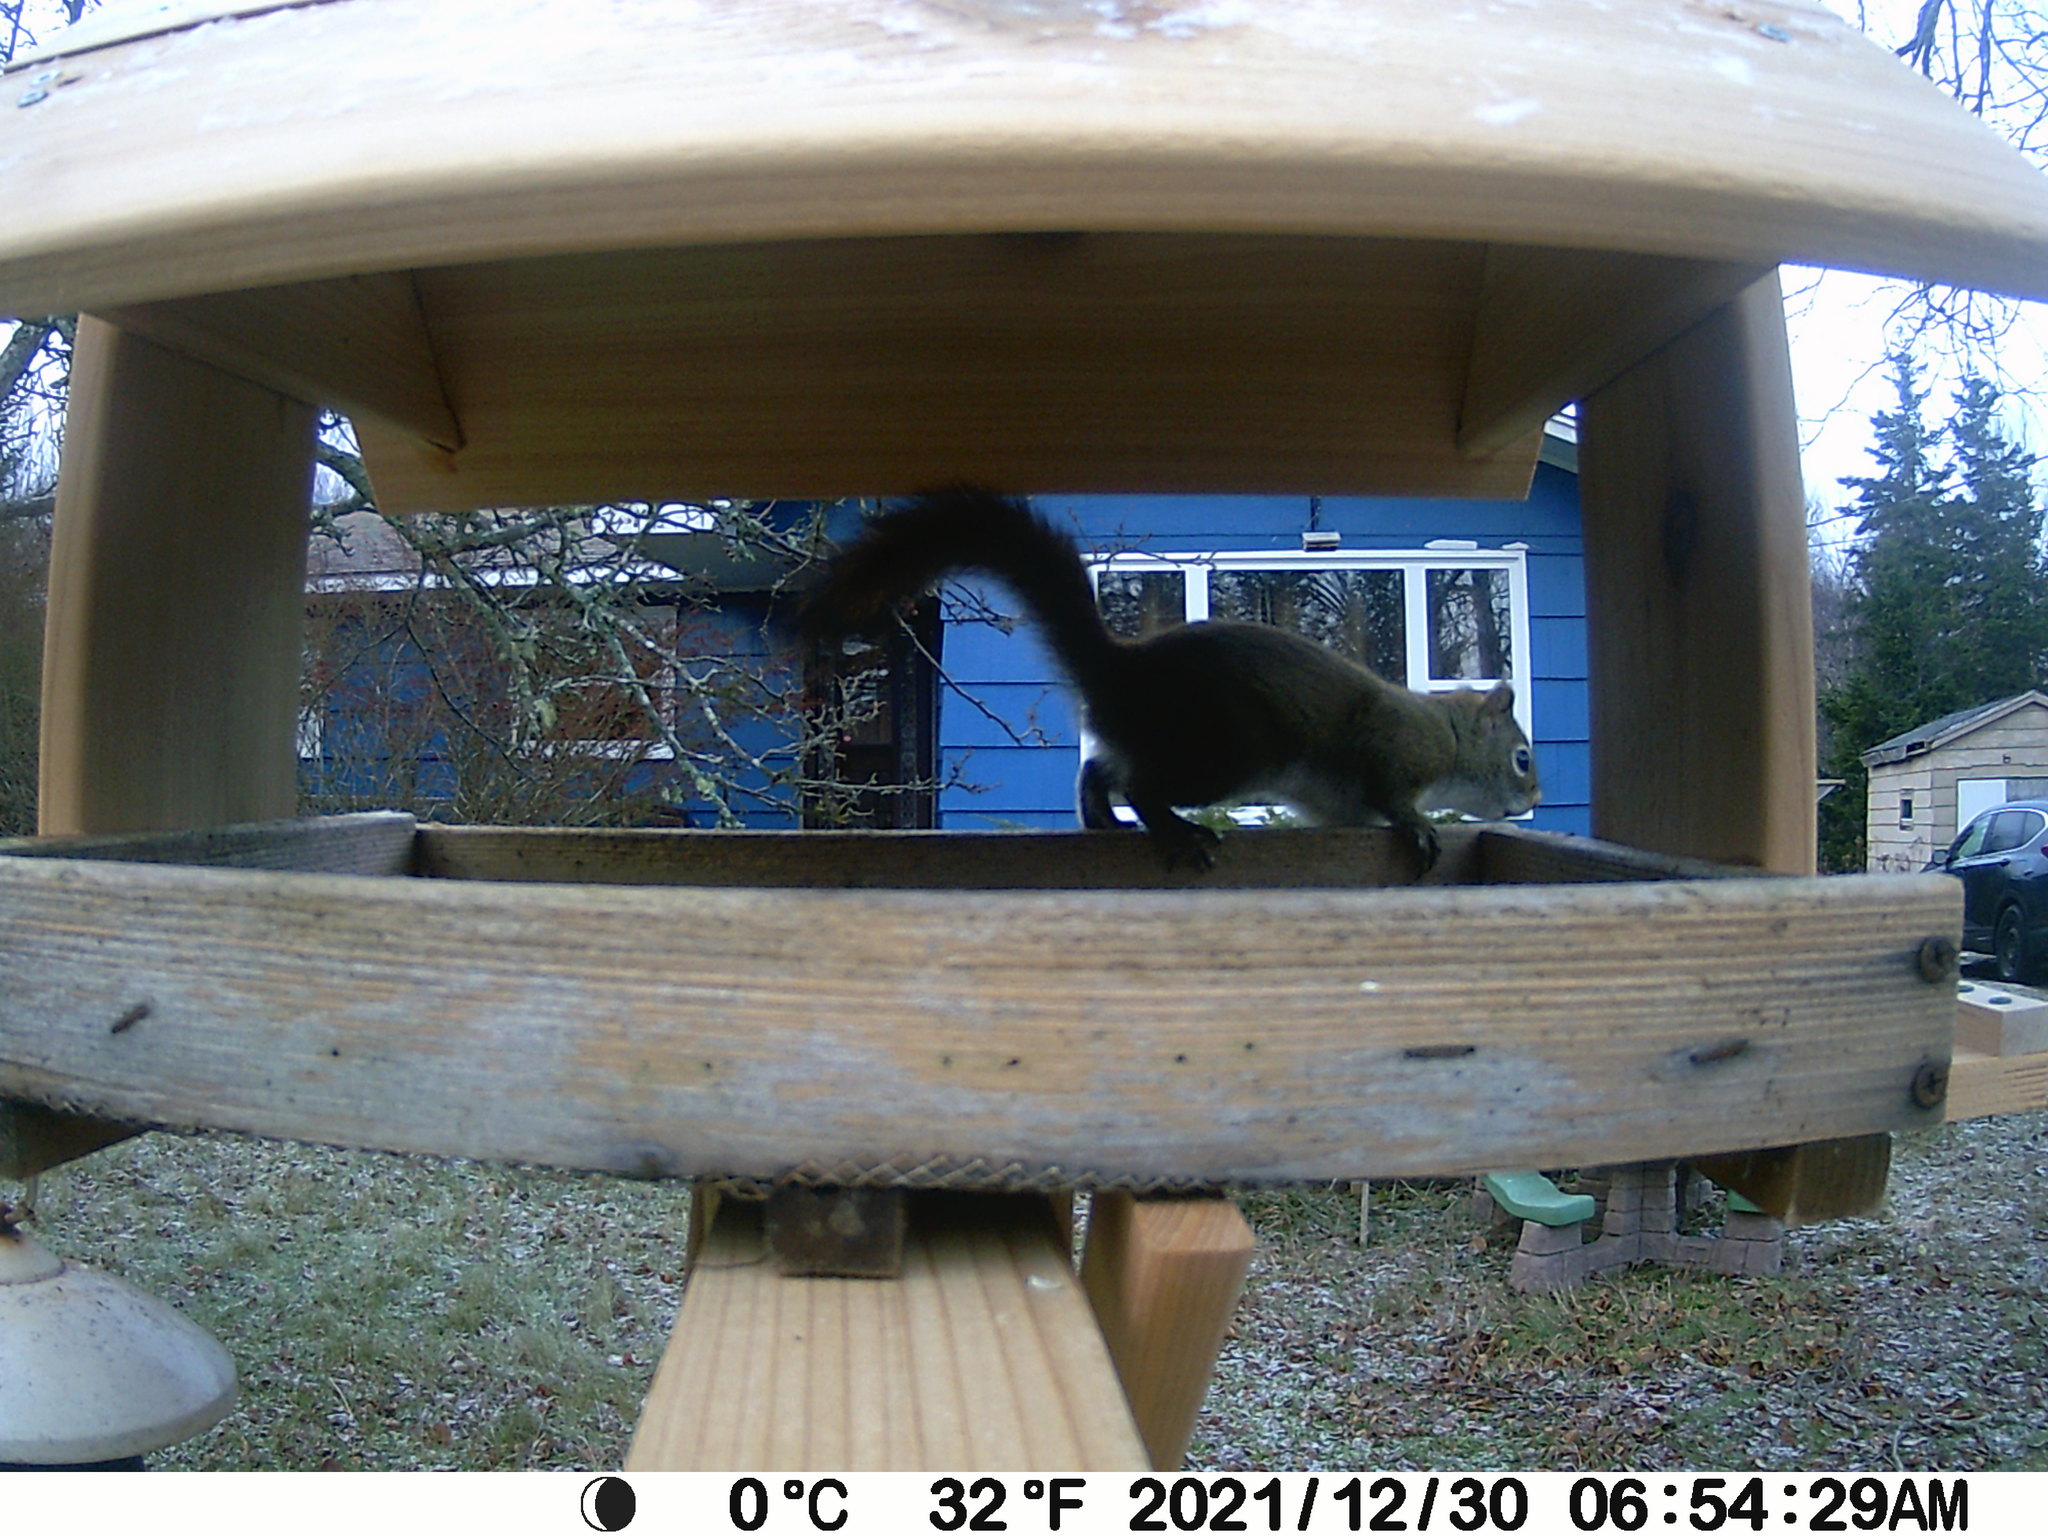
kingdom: Animalia
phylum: Chordata
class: Mammalia
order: Rodentia
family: Sciuridae
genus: Tamiasciurus
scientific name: Tamiasciurus hudsonicus
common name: Red squirrel
